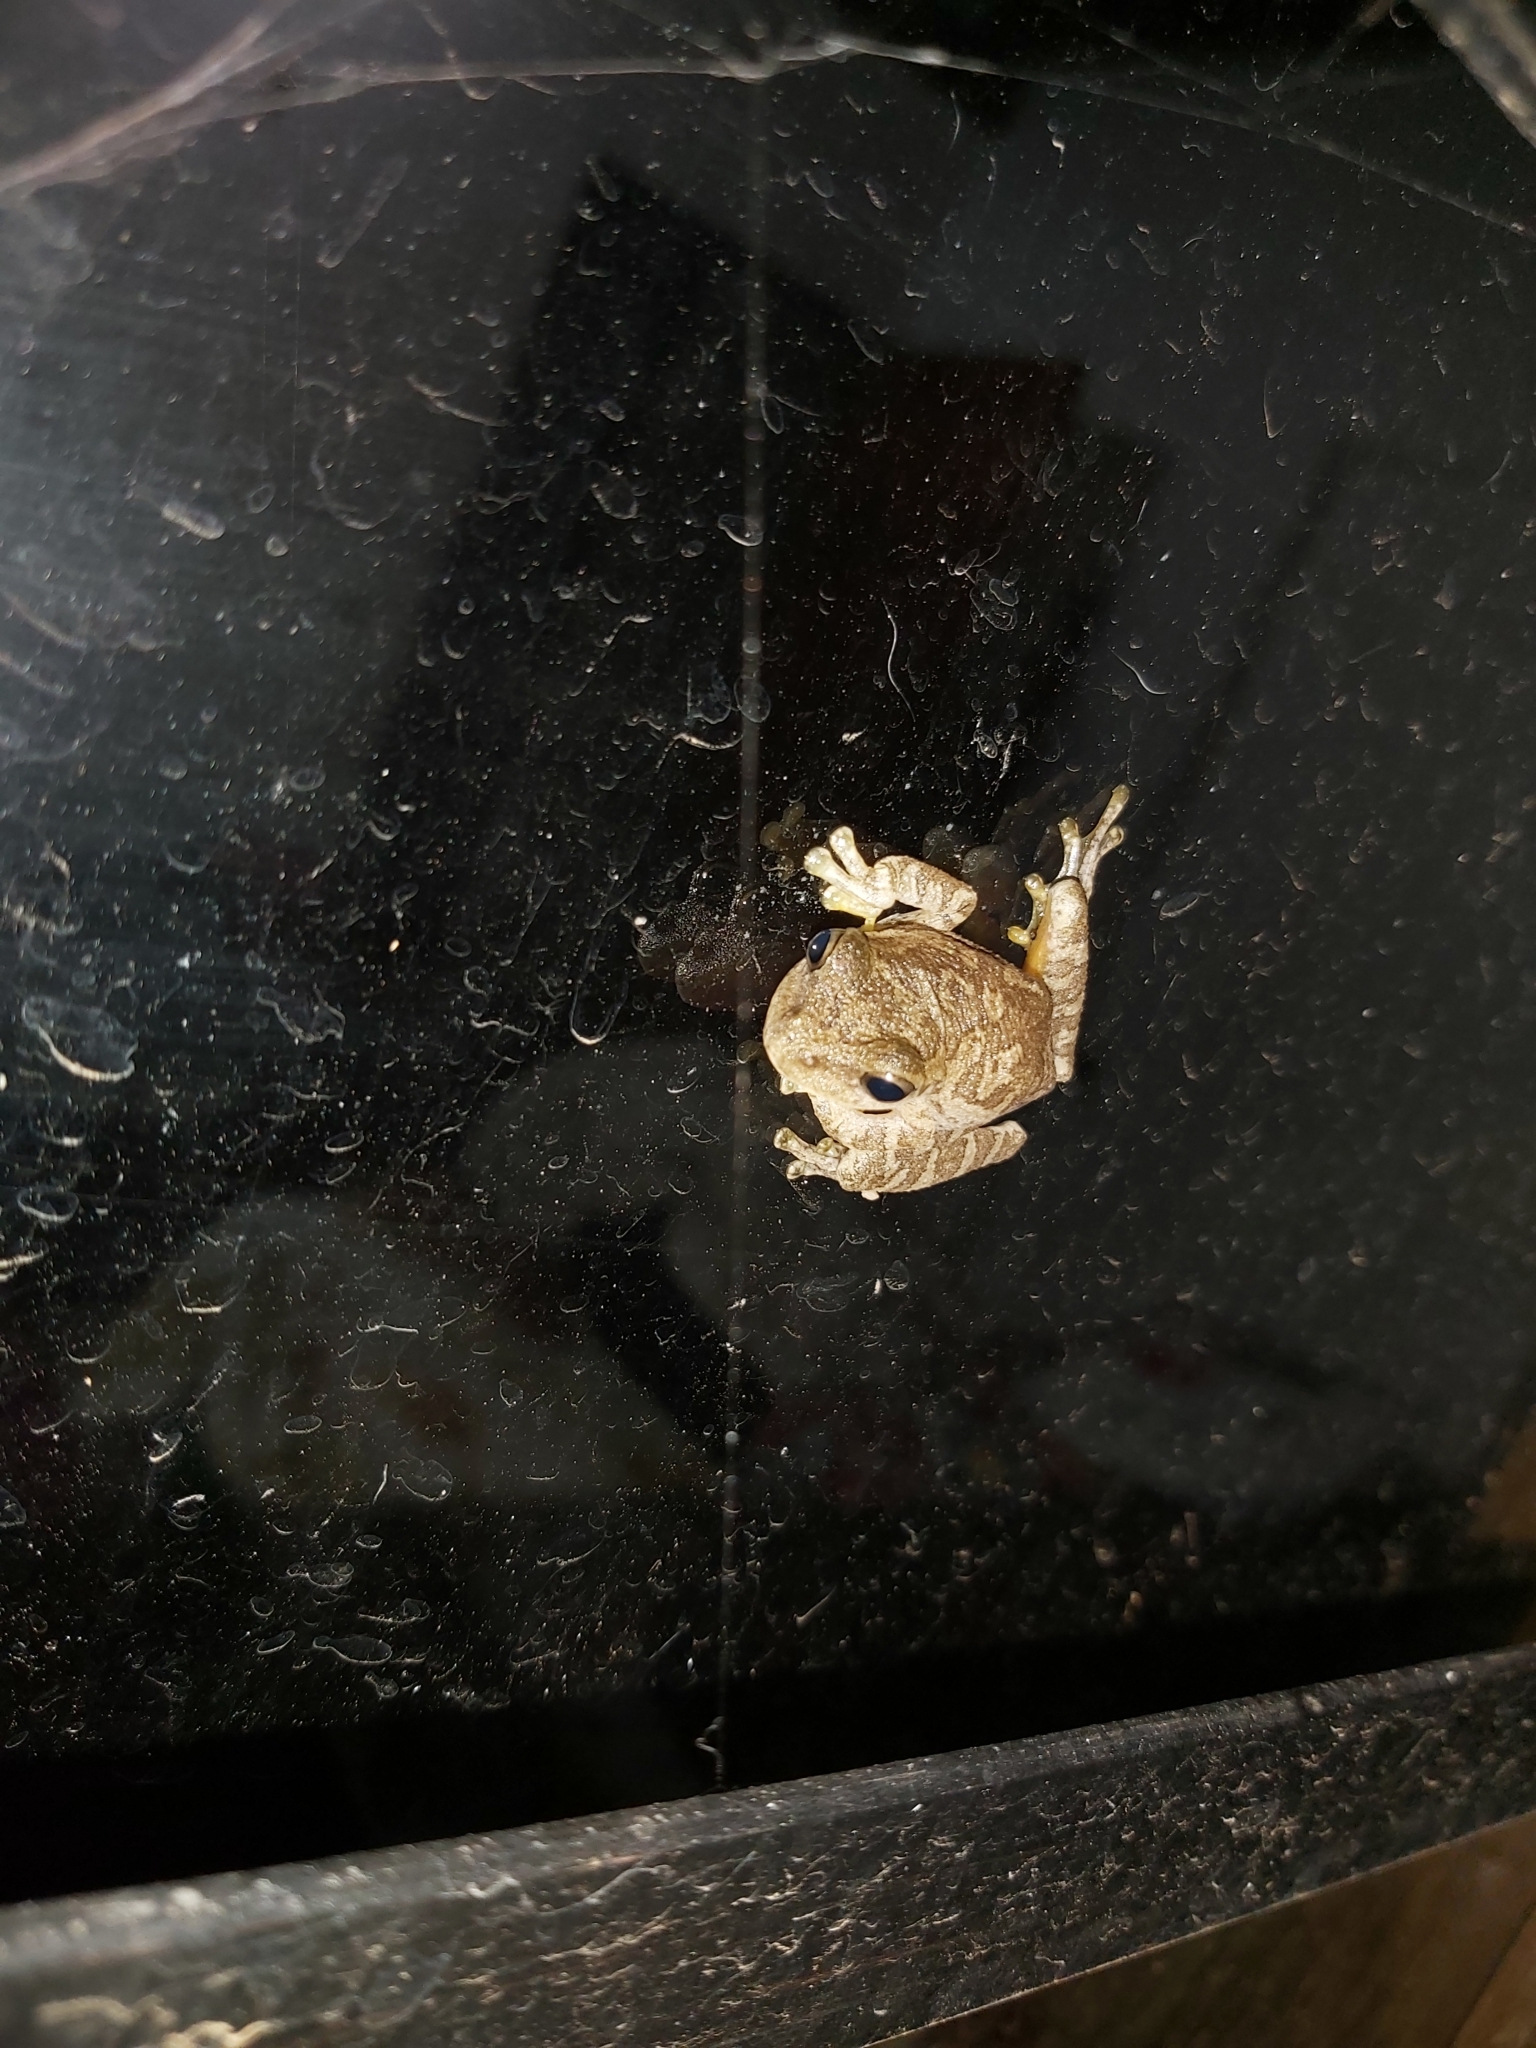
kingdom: Animalia
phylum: Chordata
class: Amphibia
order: Anura
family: Hylidae
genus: Smilisca
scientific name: Smilisca sordida
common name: Veragua cross-banded treefrog
